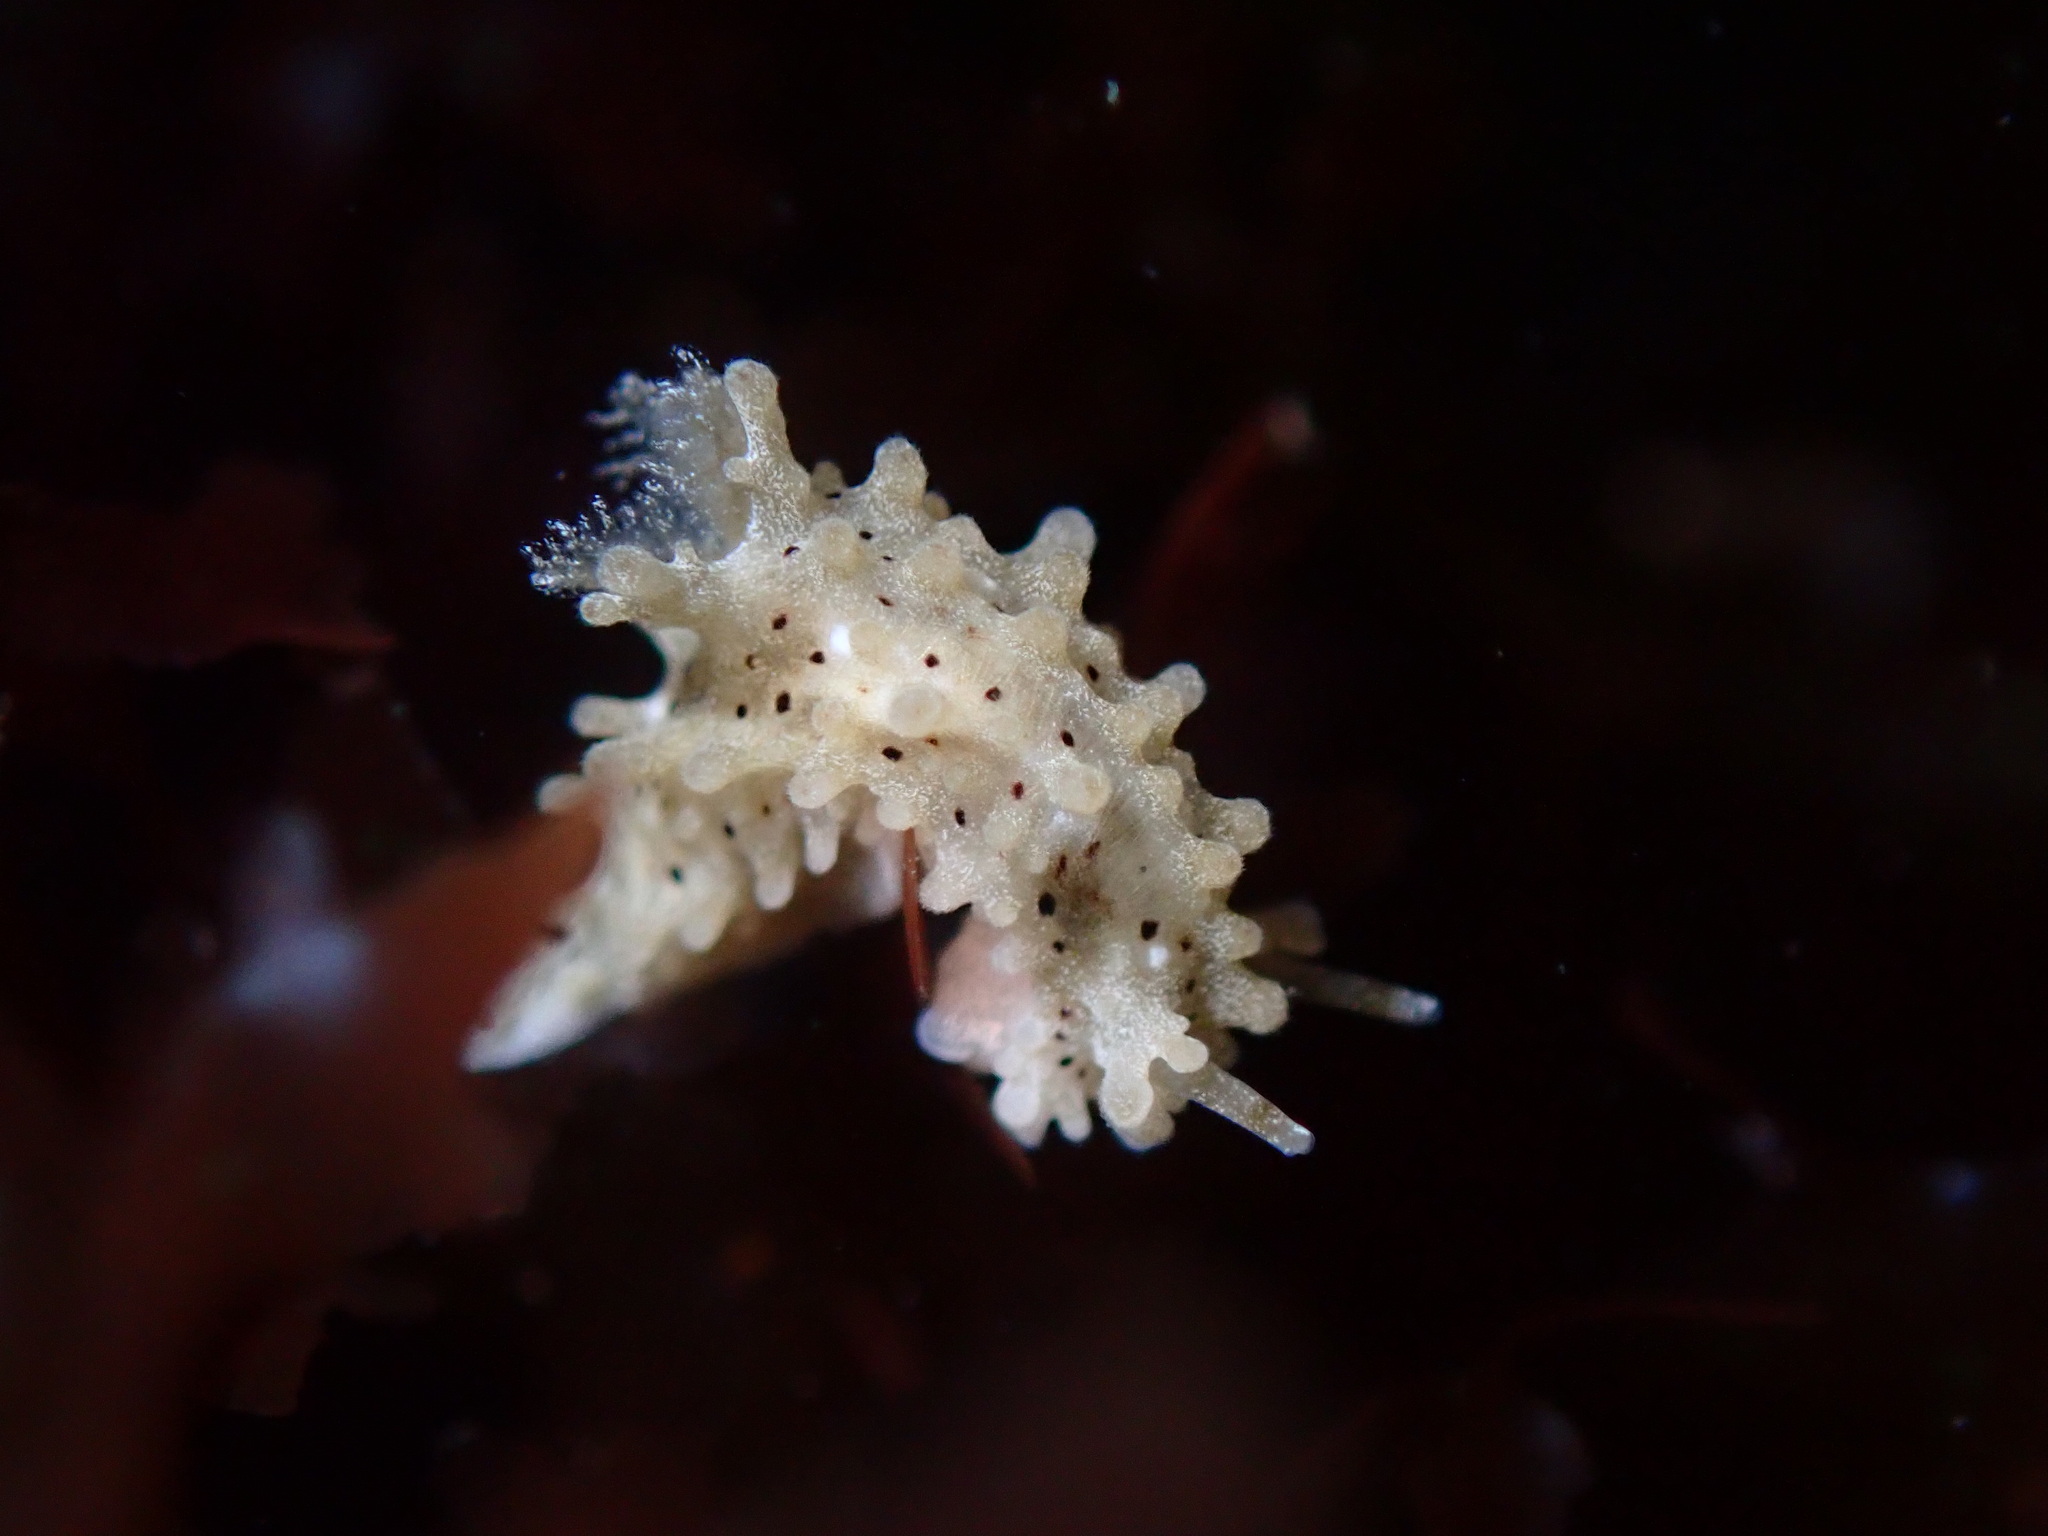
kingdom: Animalia
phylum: Mollusca
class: Gastropoda
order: Nudibranchia
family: Aegiridae
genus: Aegires
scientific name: Aegires albopunctatus
